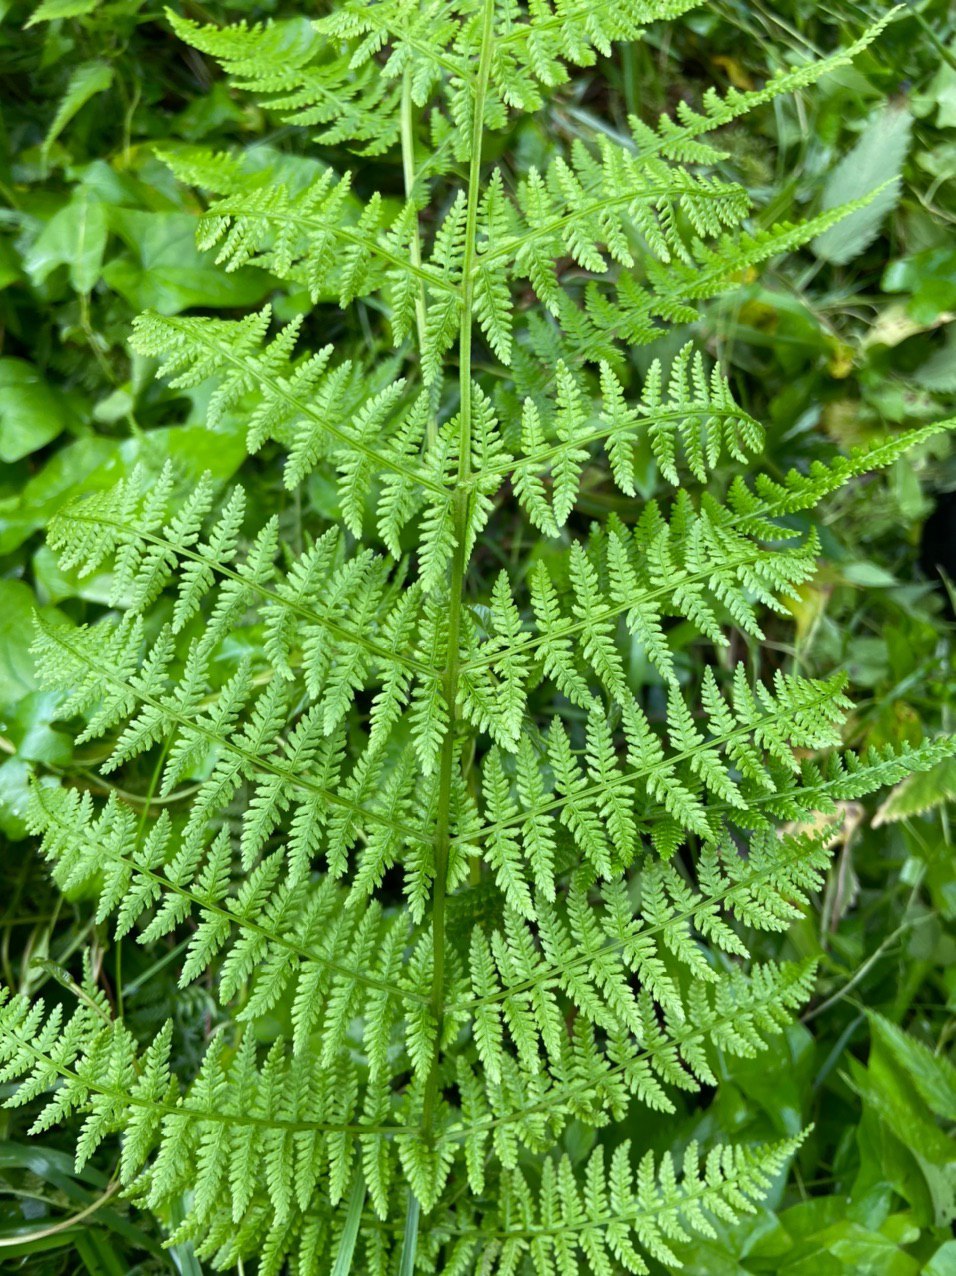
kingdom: Plantae
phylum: Tracheophyta
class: Polypodiopsida
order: Polypodiales
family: Athyriaceae
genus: Athyrium
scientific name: Athyrium filix-femina
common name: Lady fern
